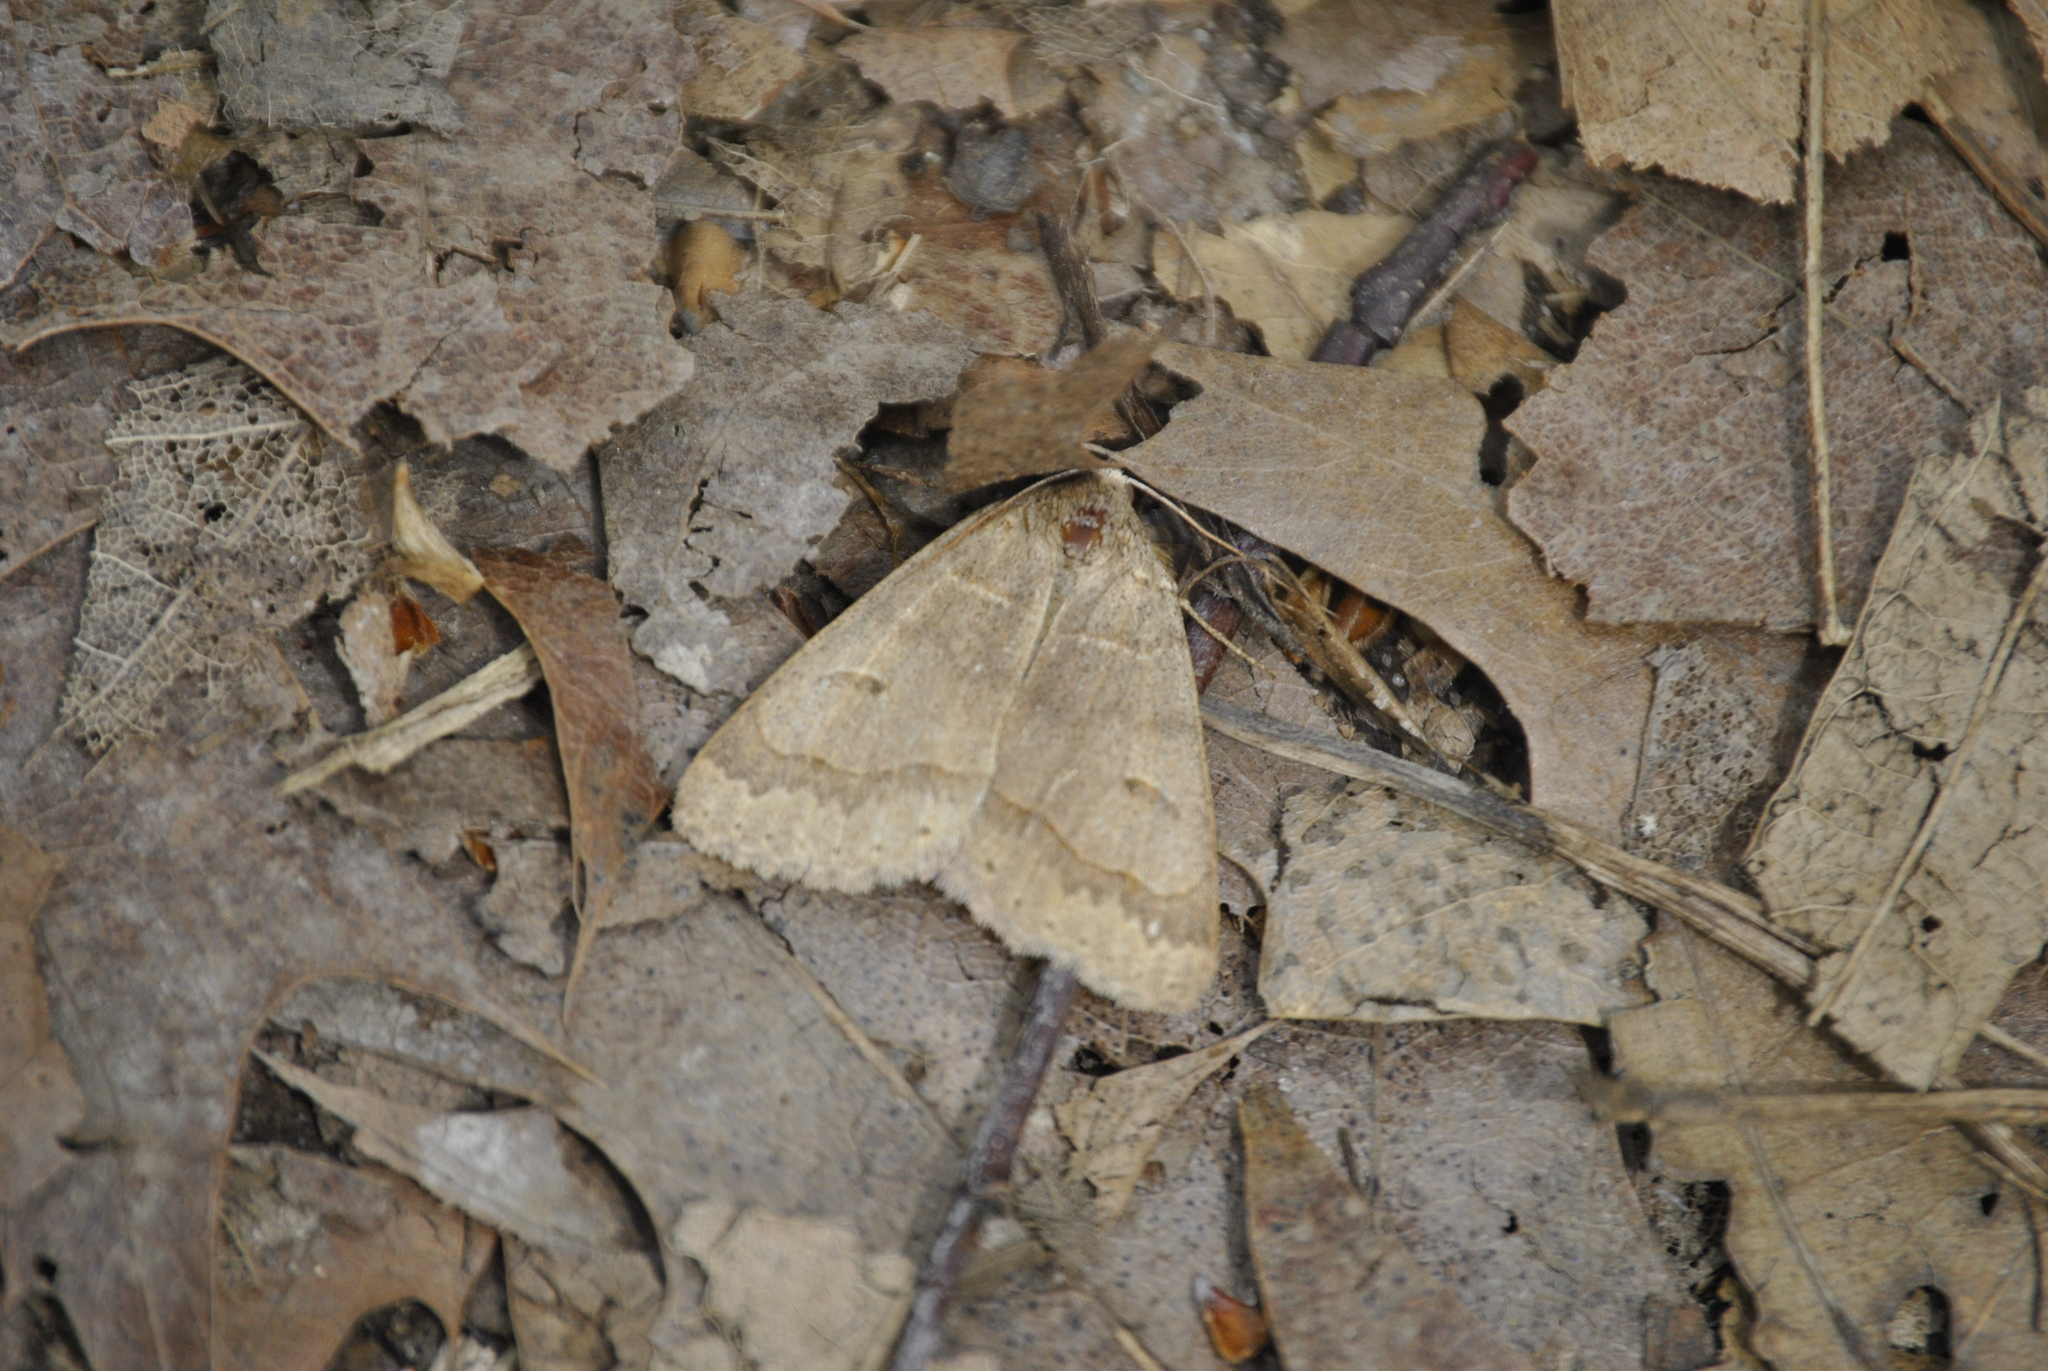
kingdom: Animalia
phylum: Arthropoda
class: Insecta
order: Lepidoptera
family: Erebidae
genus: Phoberia
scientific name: Phoberia atomaris
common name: Common oak moth
